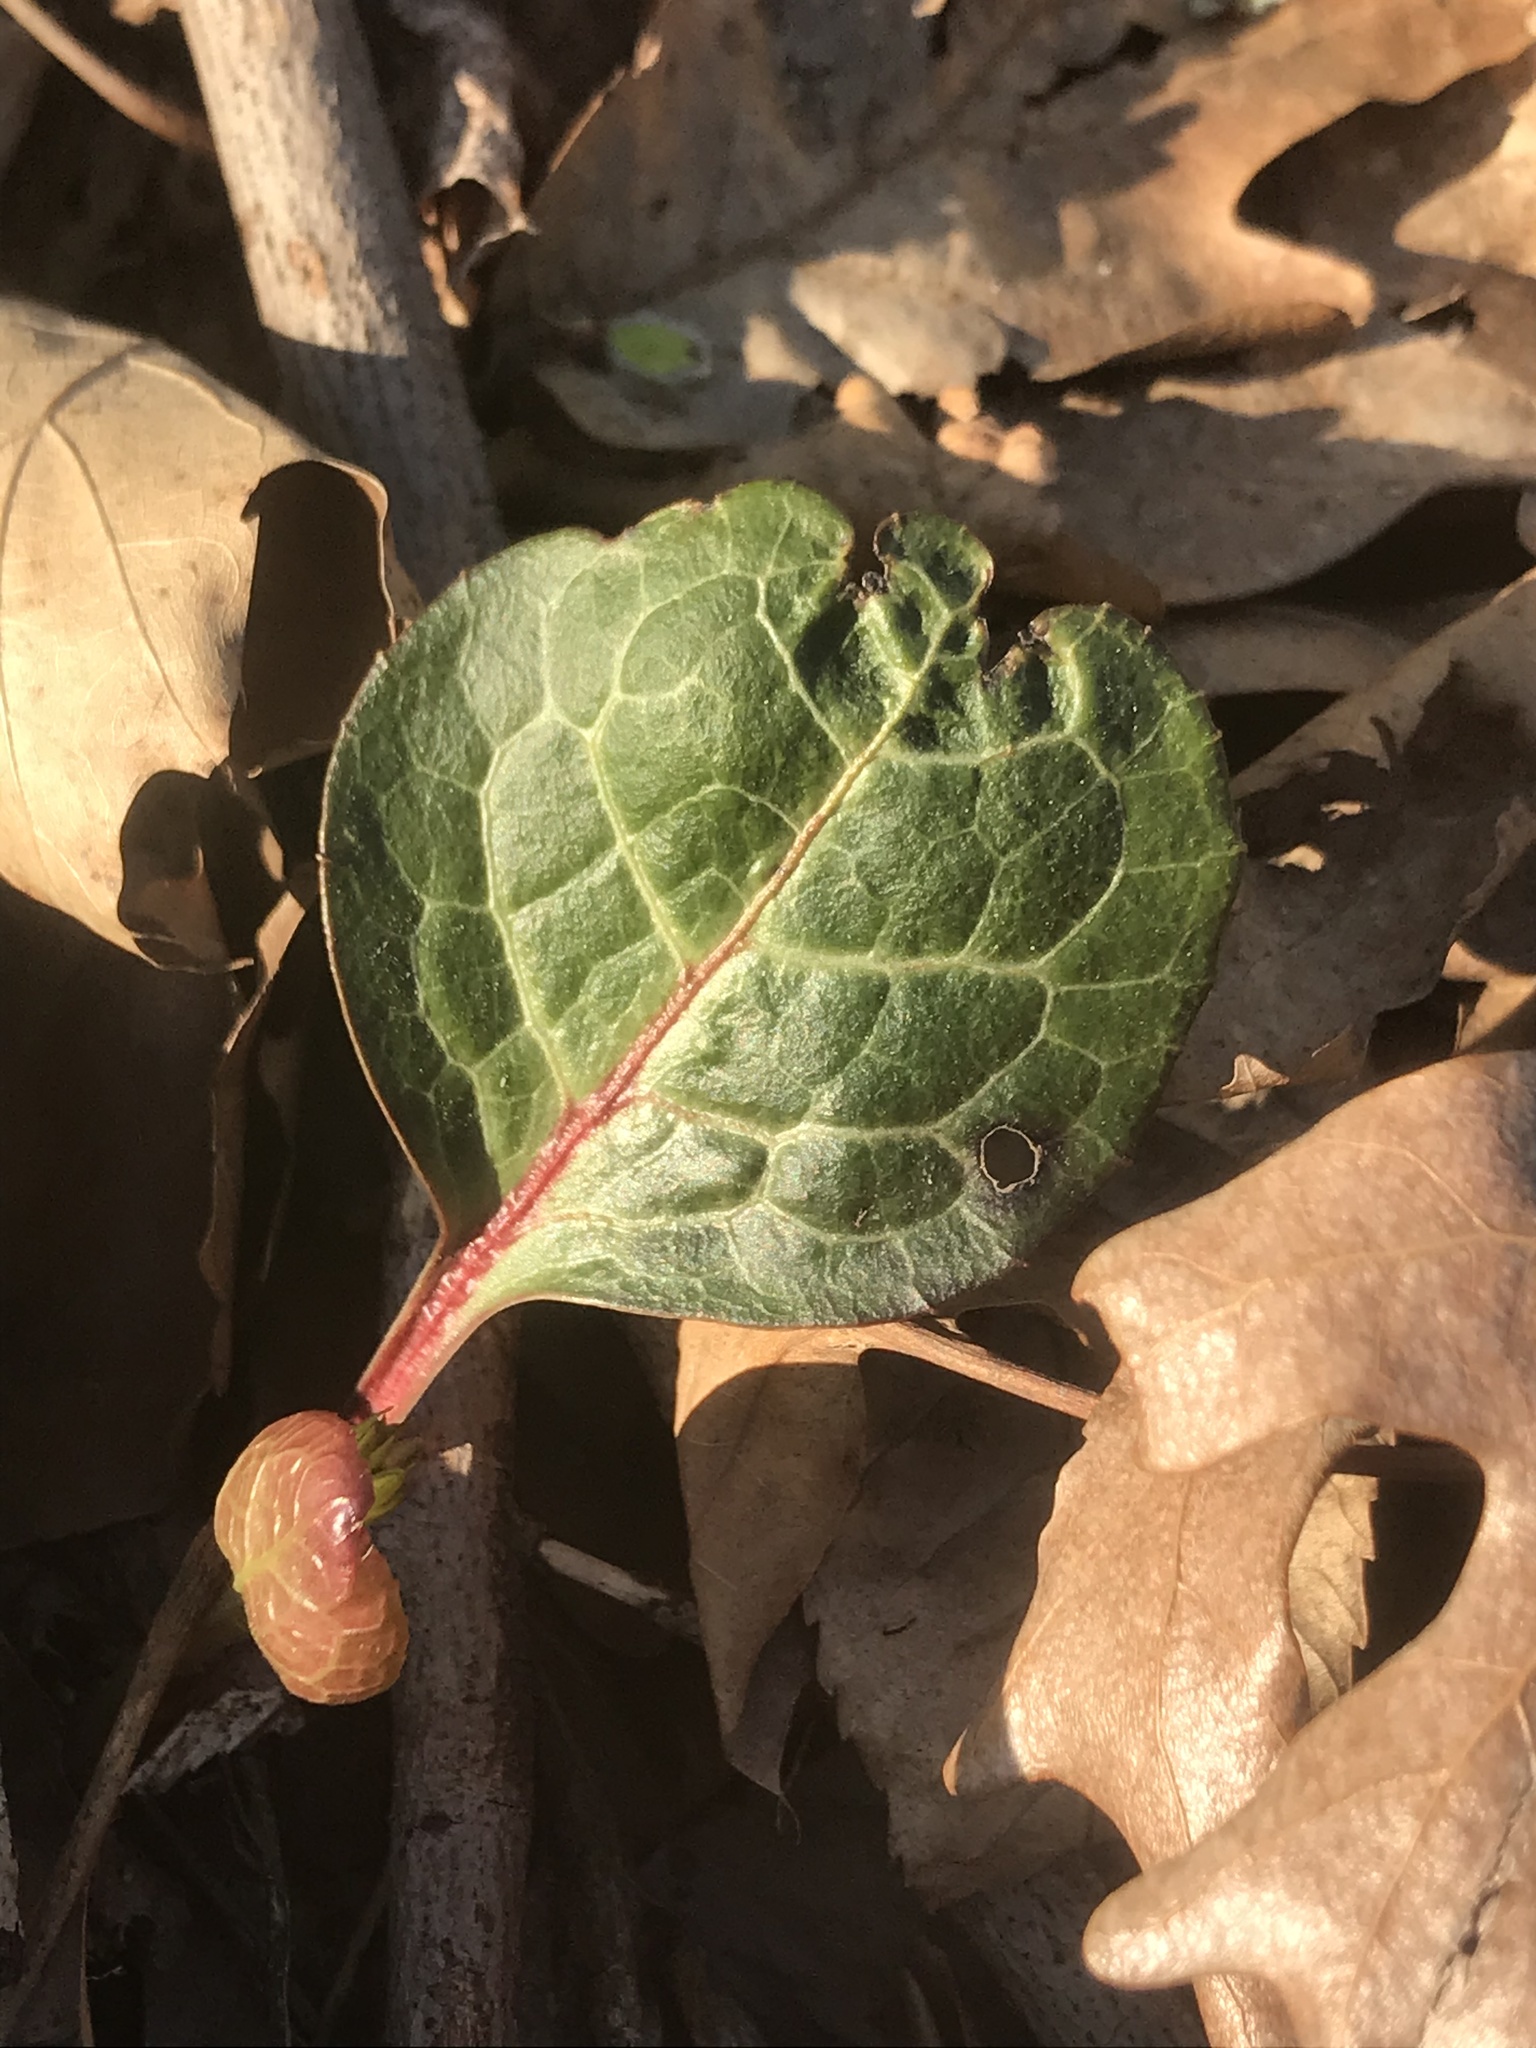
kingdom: Plantae
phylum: Tracheophyta
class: Magnoliopsida
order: Ericales
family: Ericaceae
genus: Pyrola
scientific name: Pyrola americana
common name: American wintergreen
